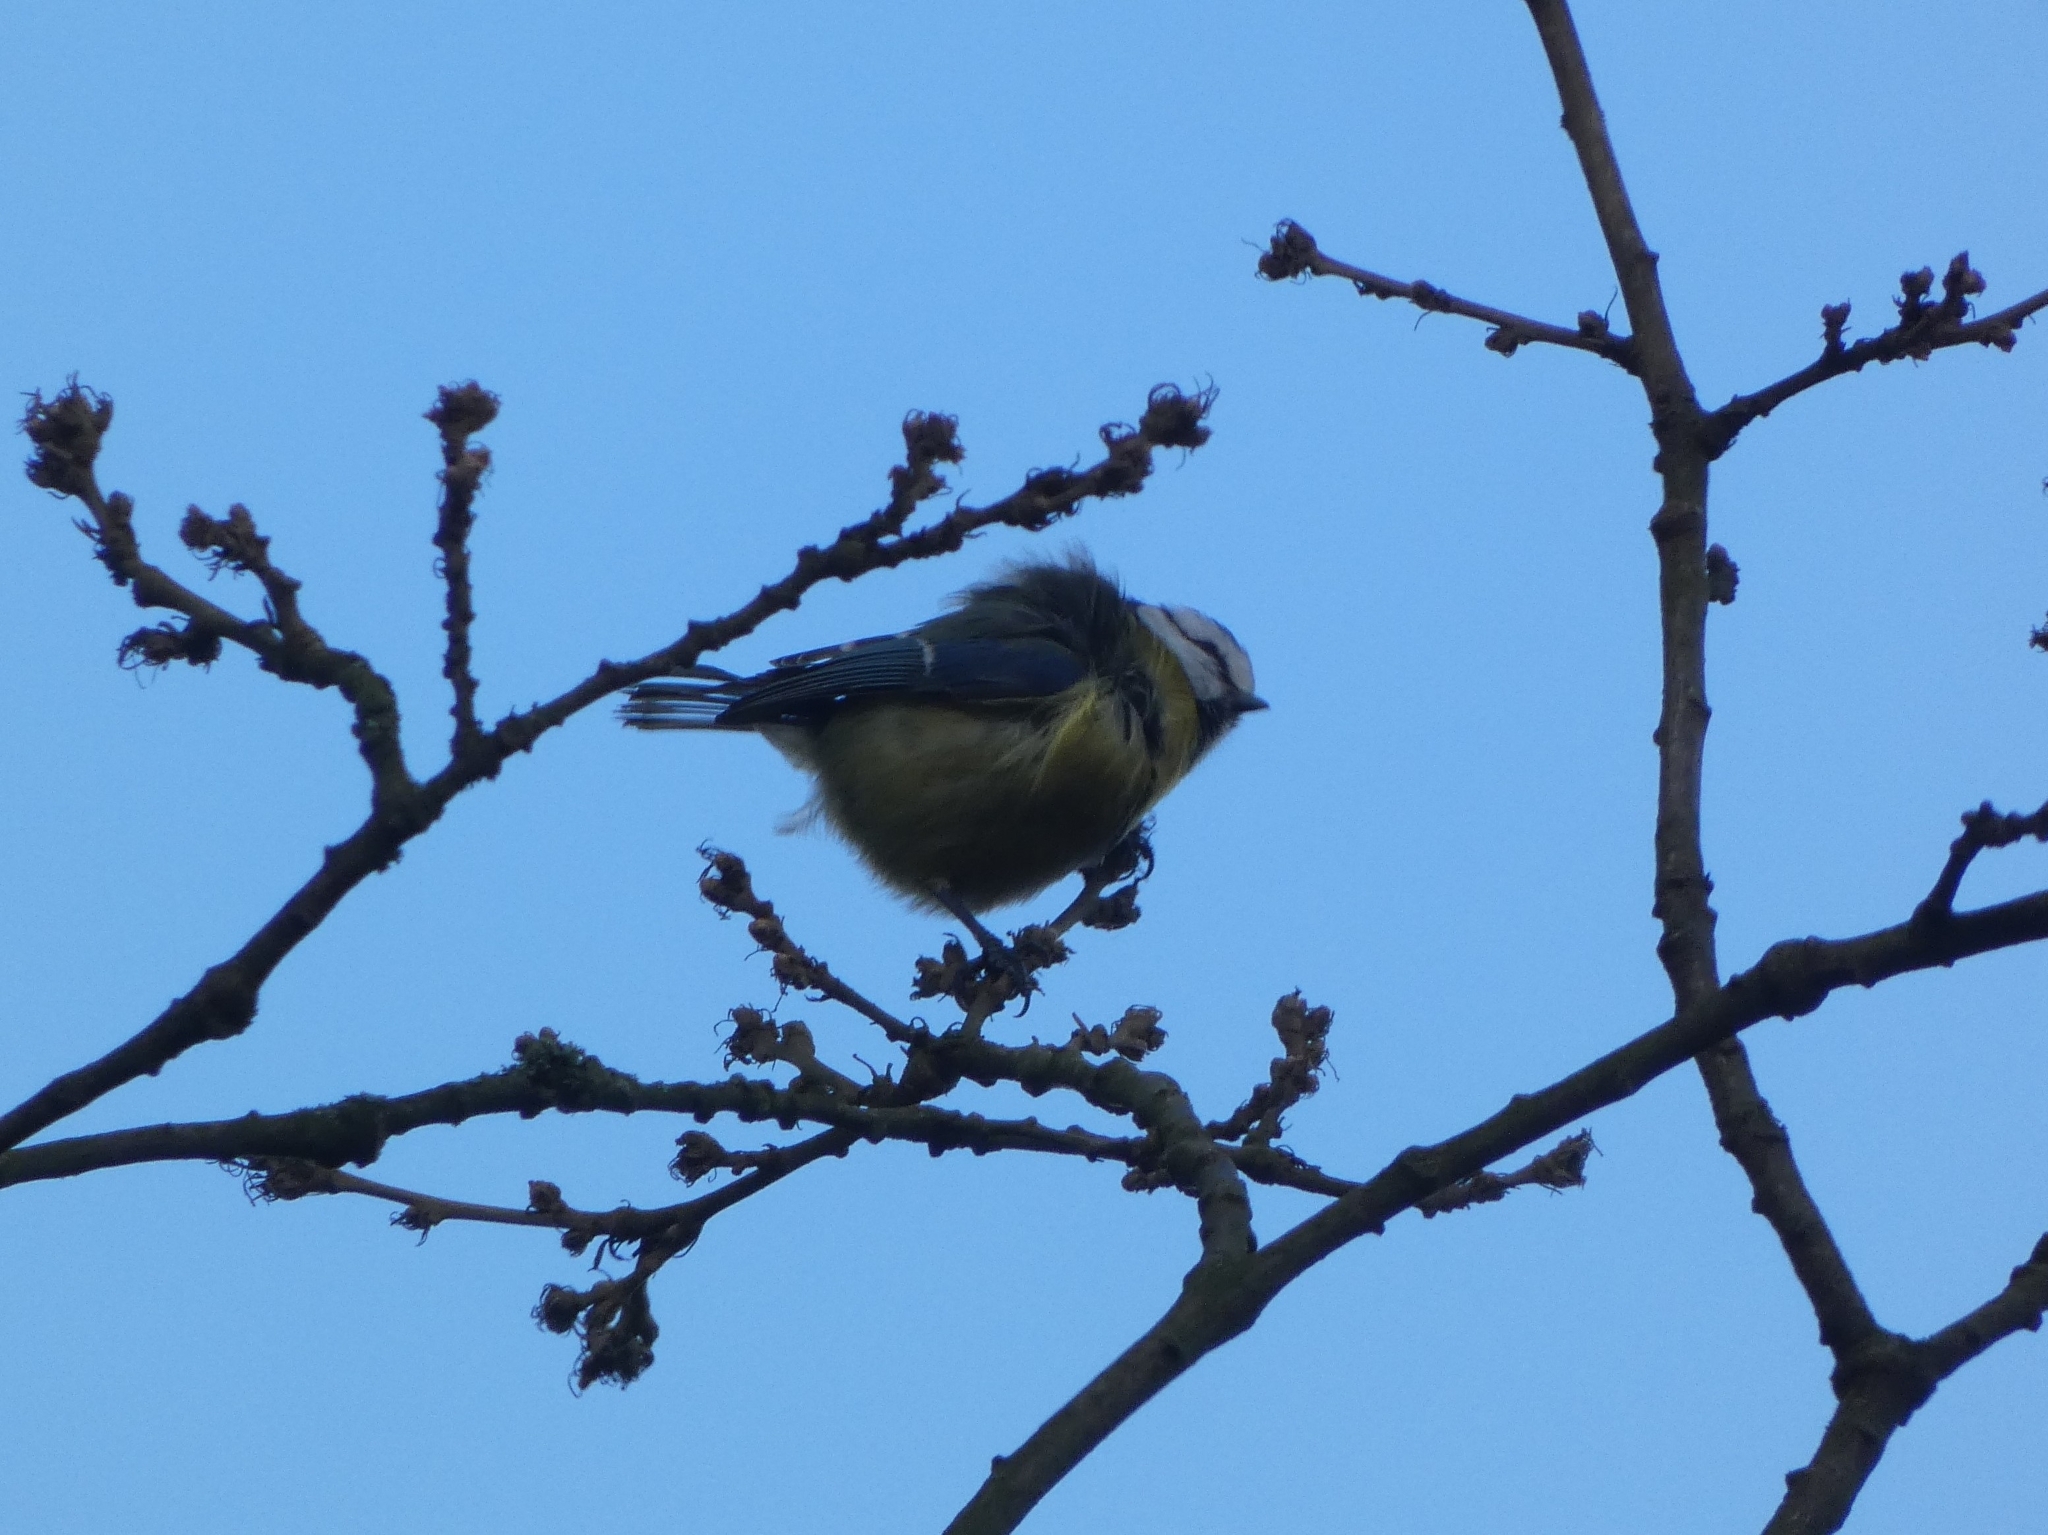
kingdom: Animalia
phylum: Chordata
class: Aves
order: Passeriformes
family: Paridae
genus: Cyanistes
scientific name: Cyanistes caeruleus
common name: Eurasian blue tit
